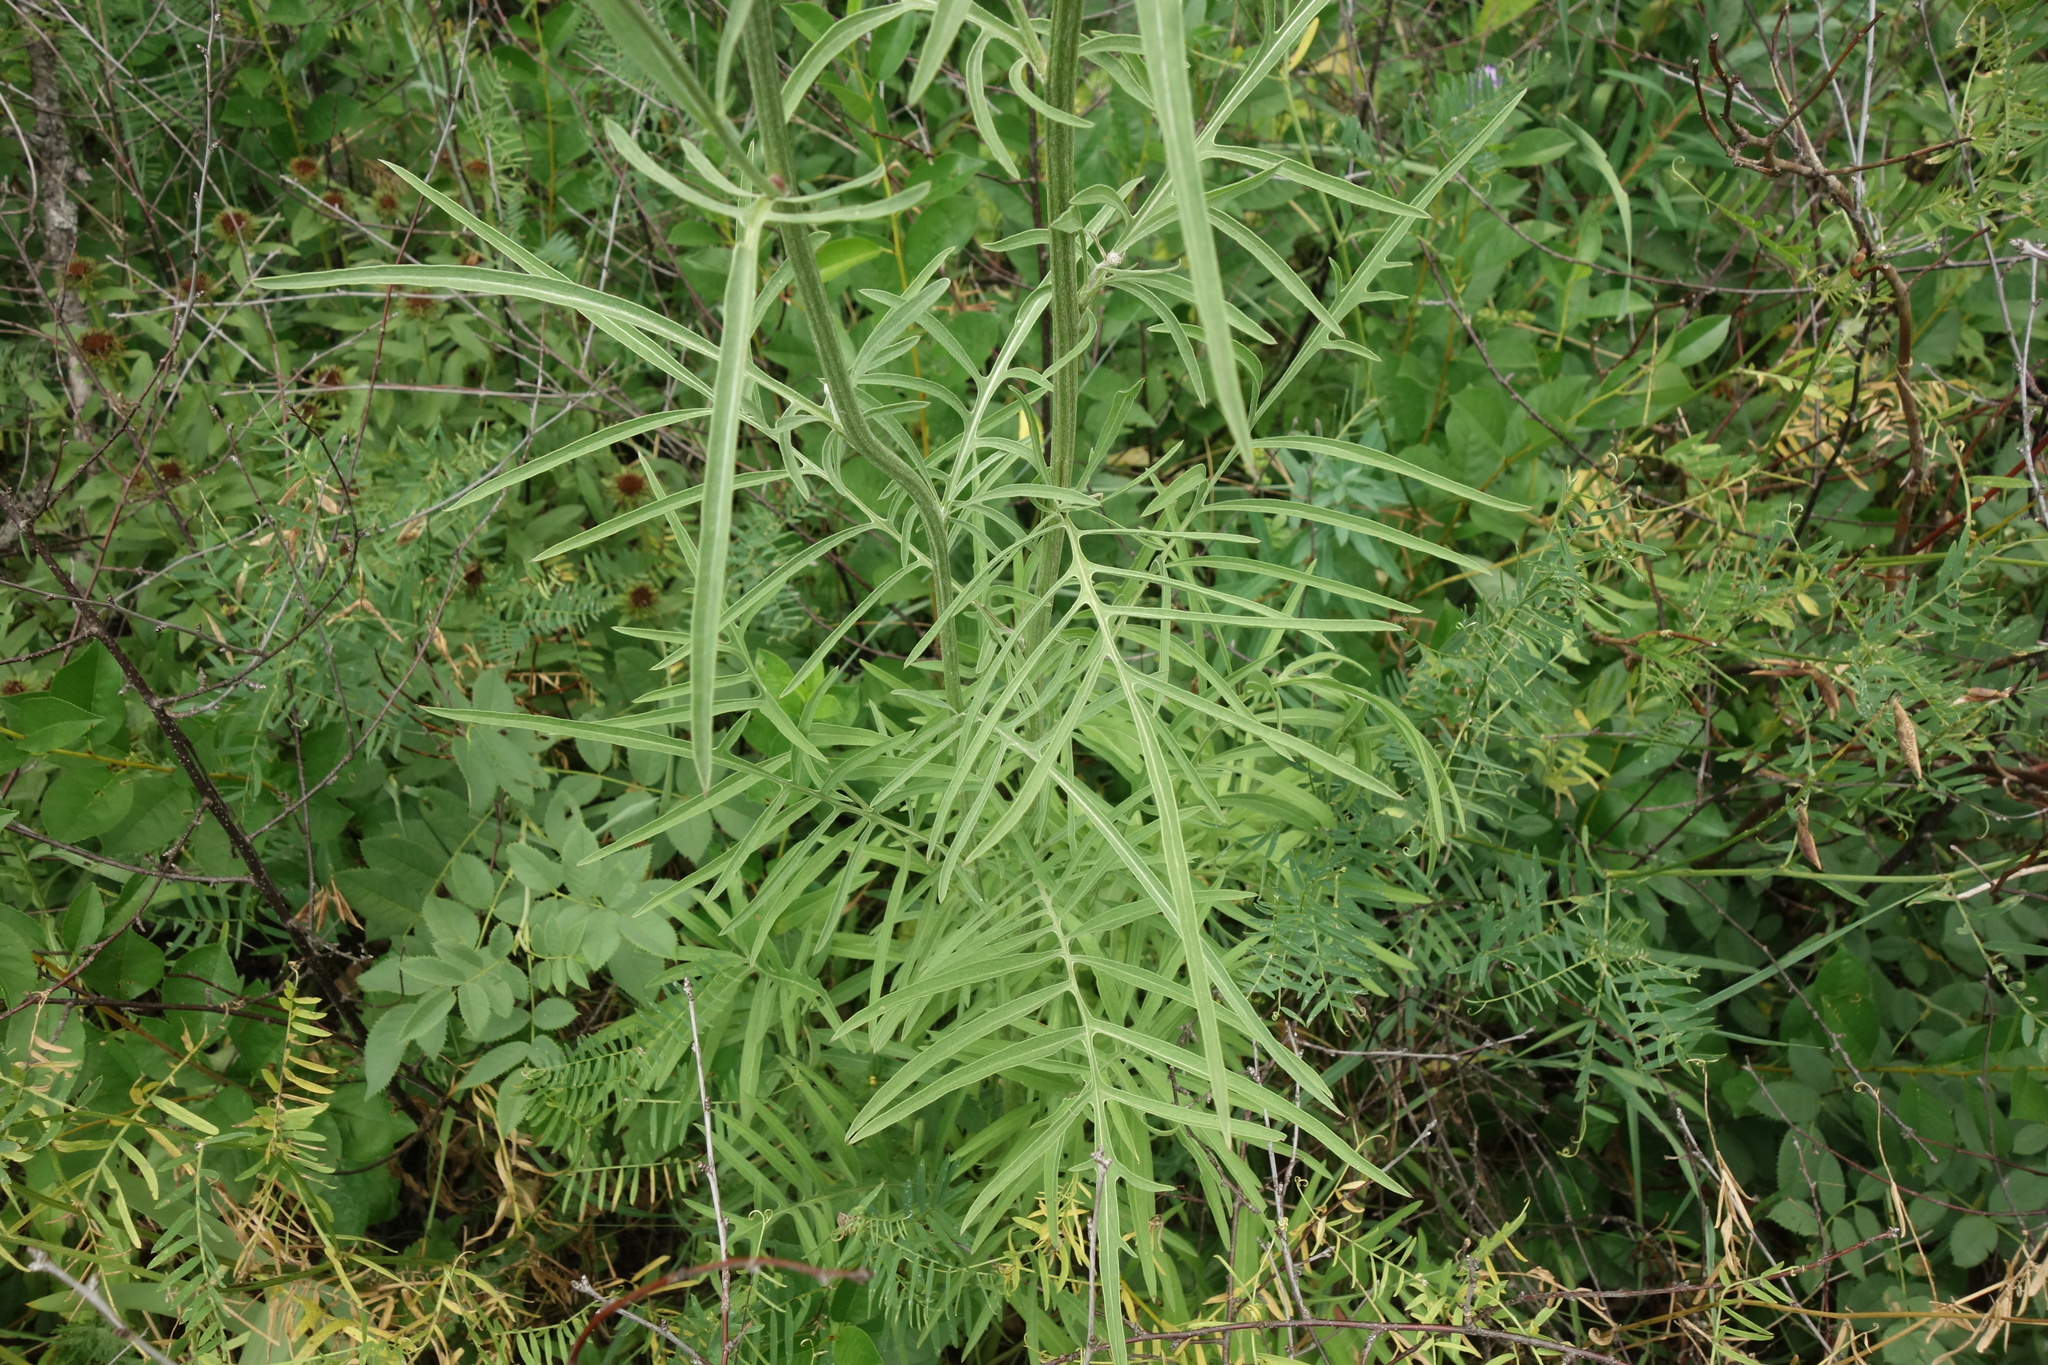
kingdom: Plantae
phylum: Tracheophyta
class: Magnoliopsida
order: Asterales
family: Asteraceae
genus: Centaurea
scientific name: Centaurea scabiosa
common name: Greater knapweed
